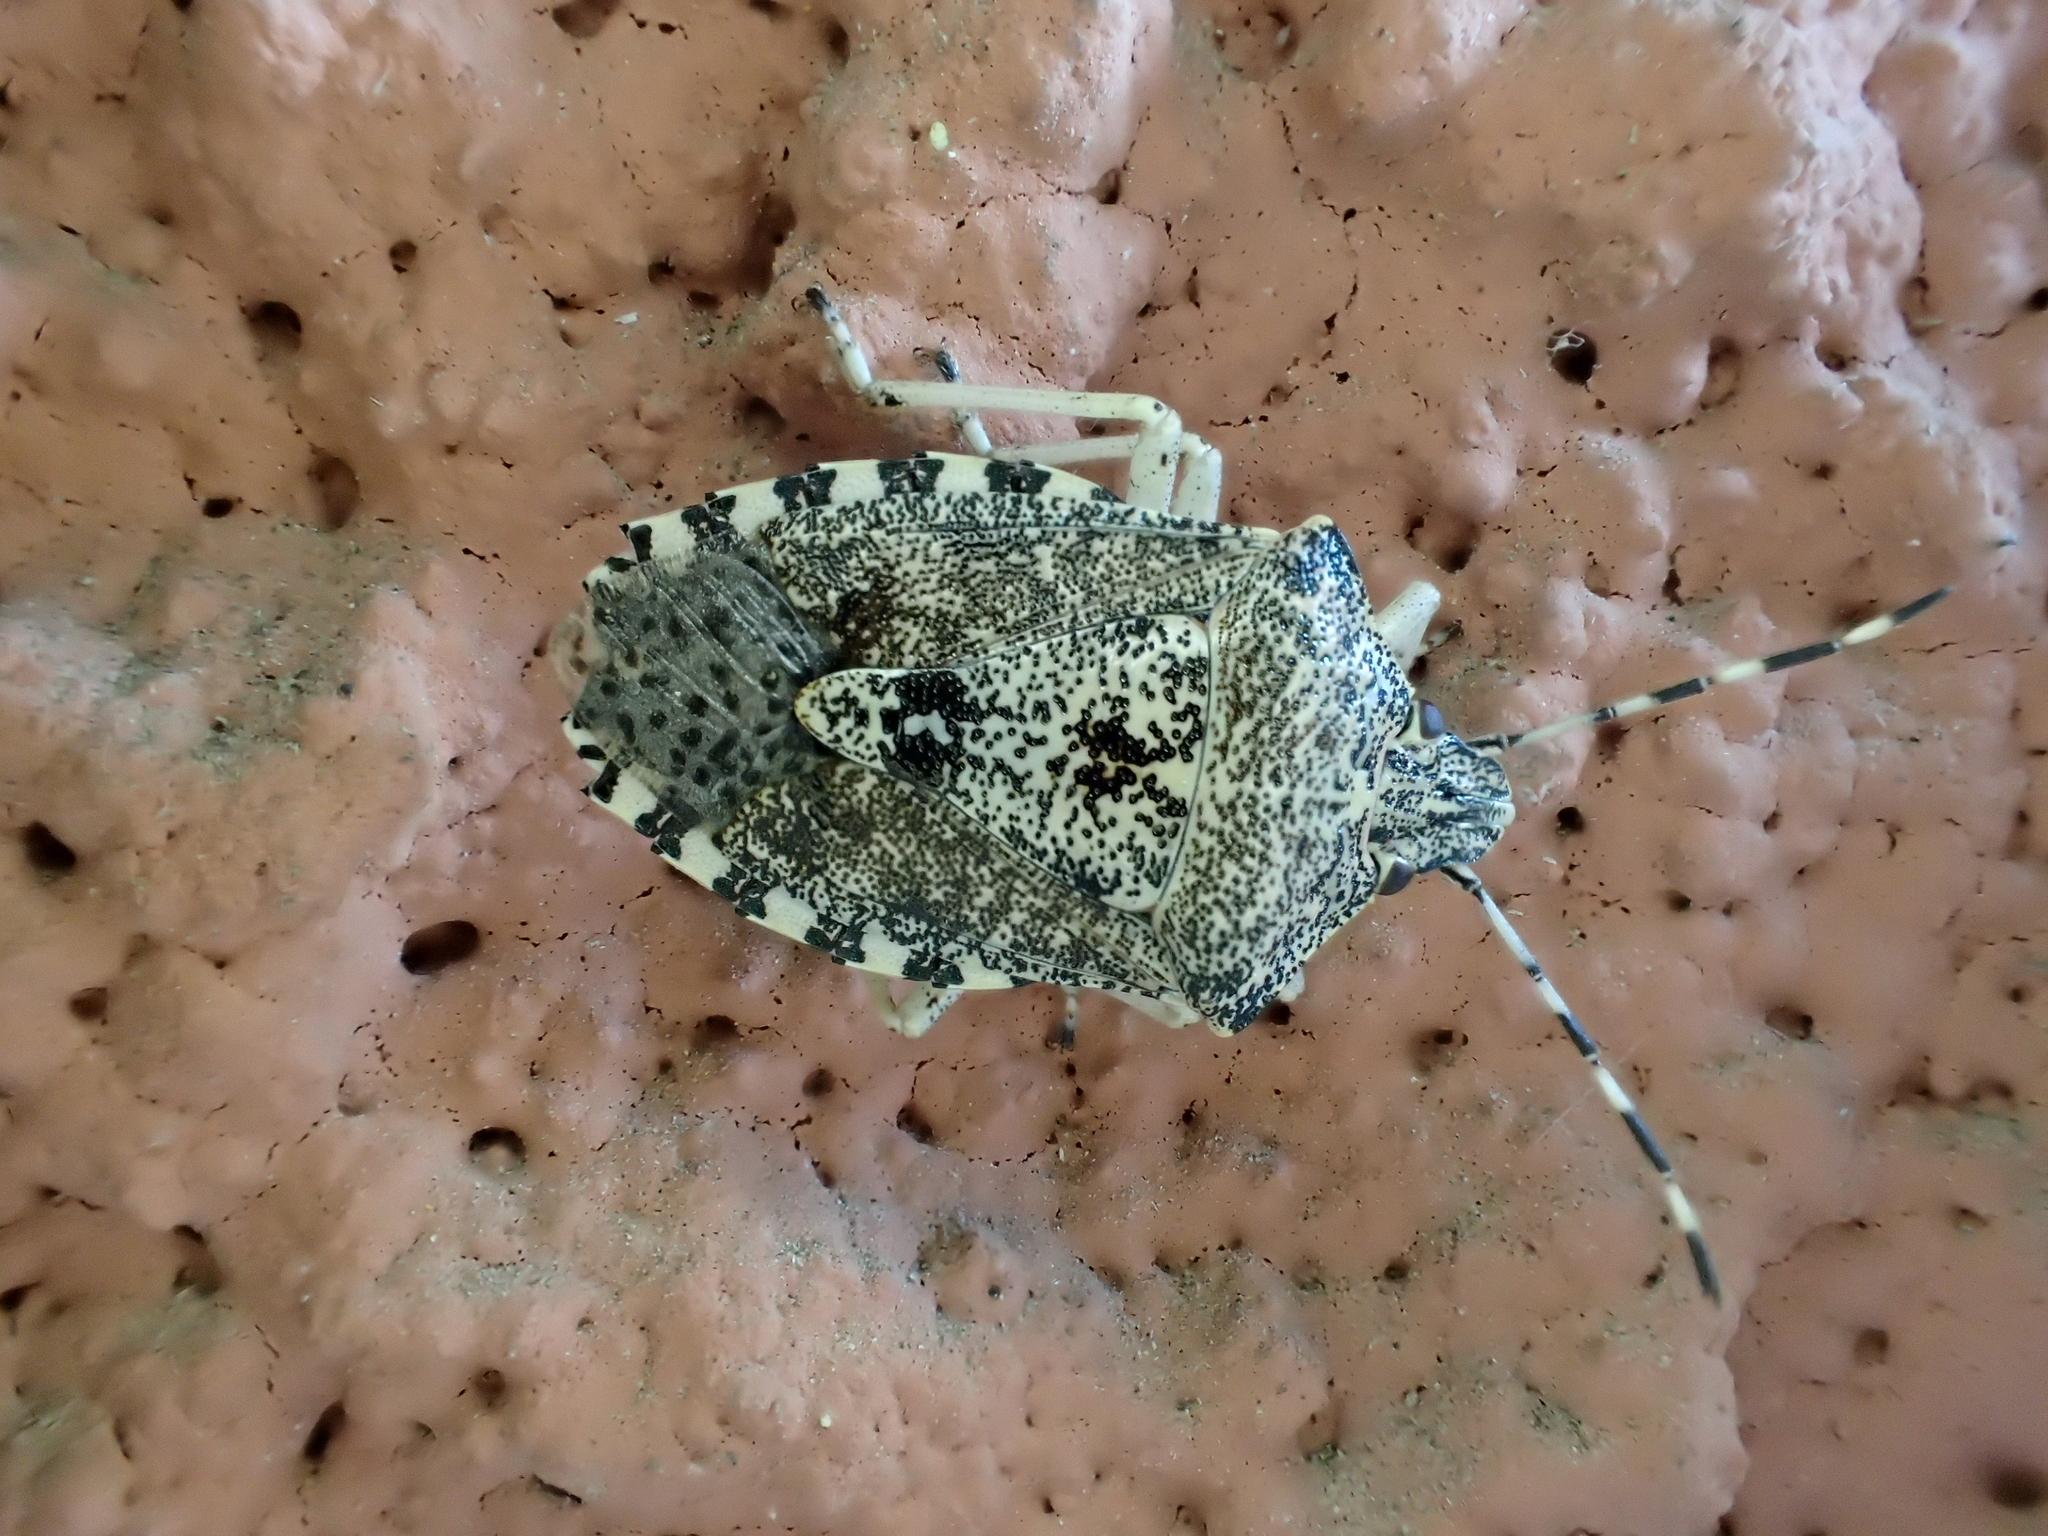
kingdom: Animalia
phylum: Arthropoda
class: Insecta
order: Hemiptera
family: Pentatomidae
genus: Rhaphigaster
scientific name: Rhaphigaster nebulosa
